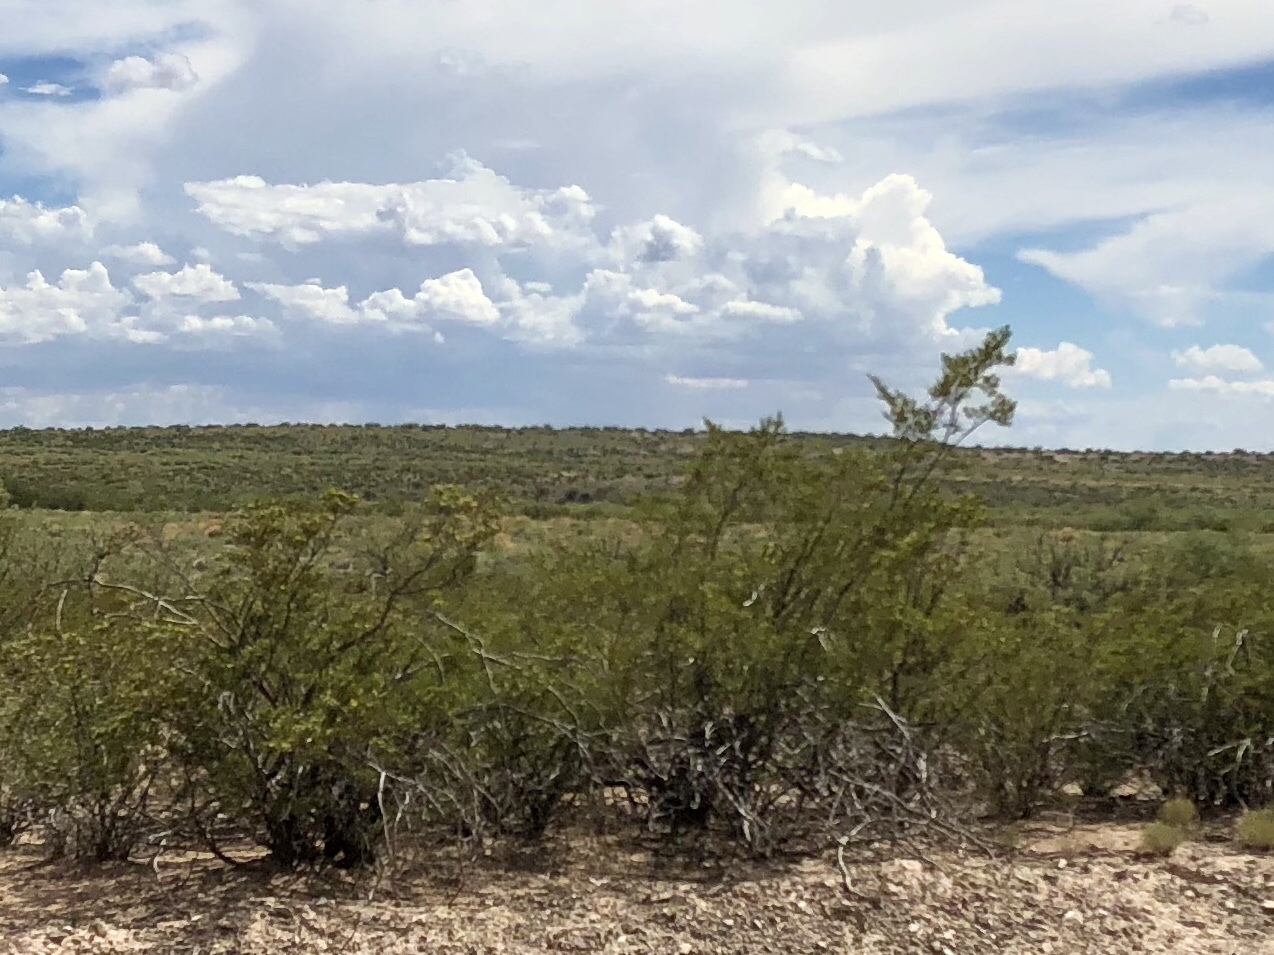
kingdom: Plantae
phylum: Tracheophyta
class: Magnoliopsida
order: Zygophyllales
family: Zygophyllaceae
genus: Larrea
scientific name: Larrea tridentata
